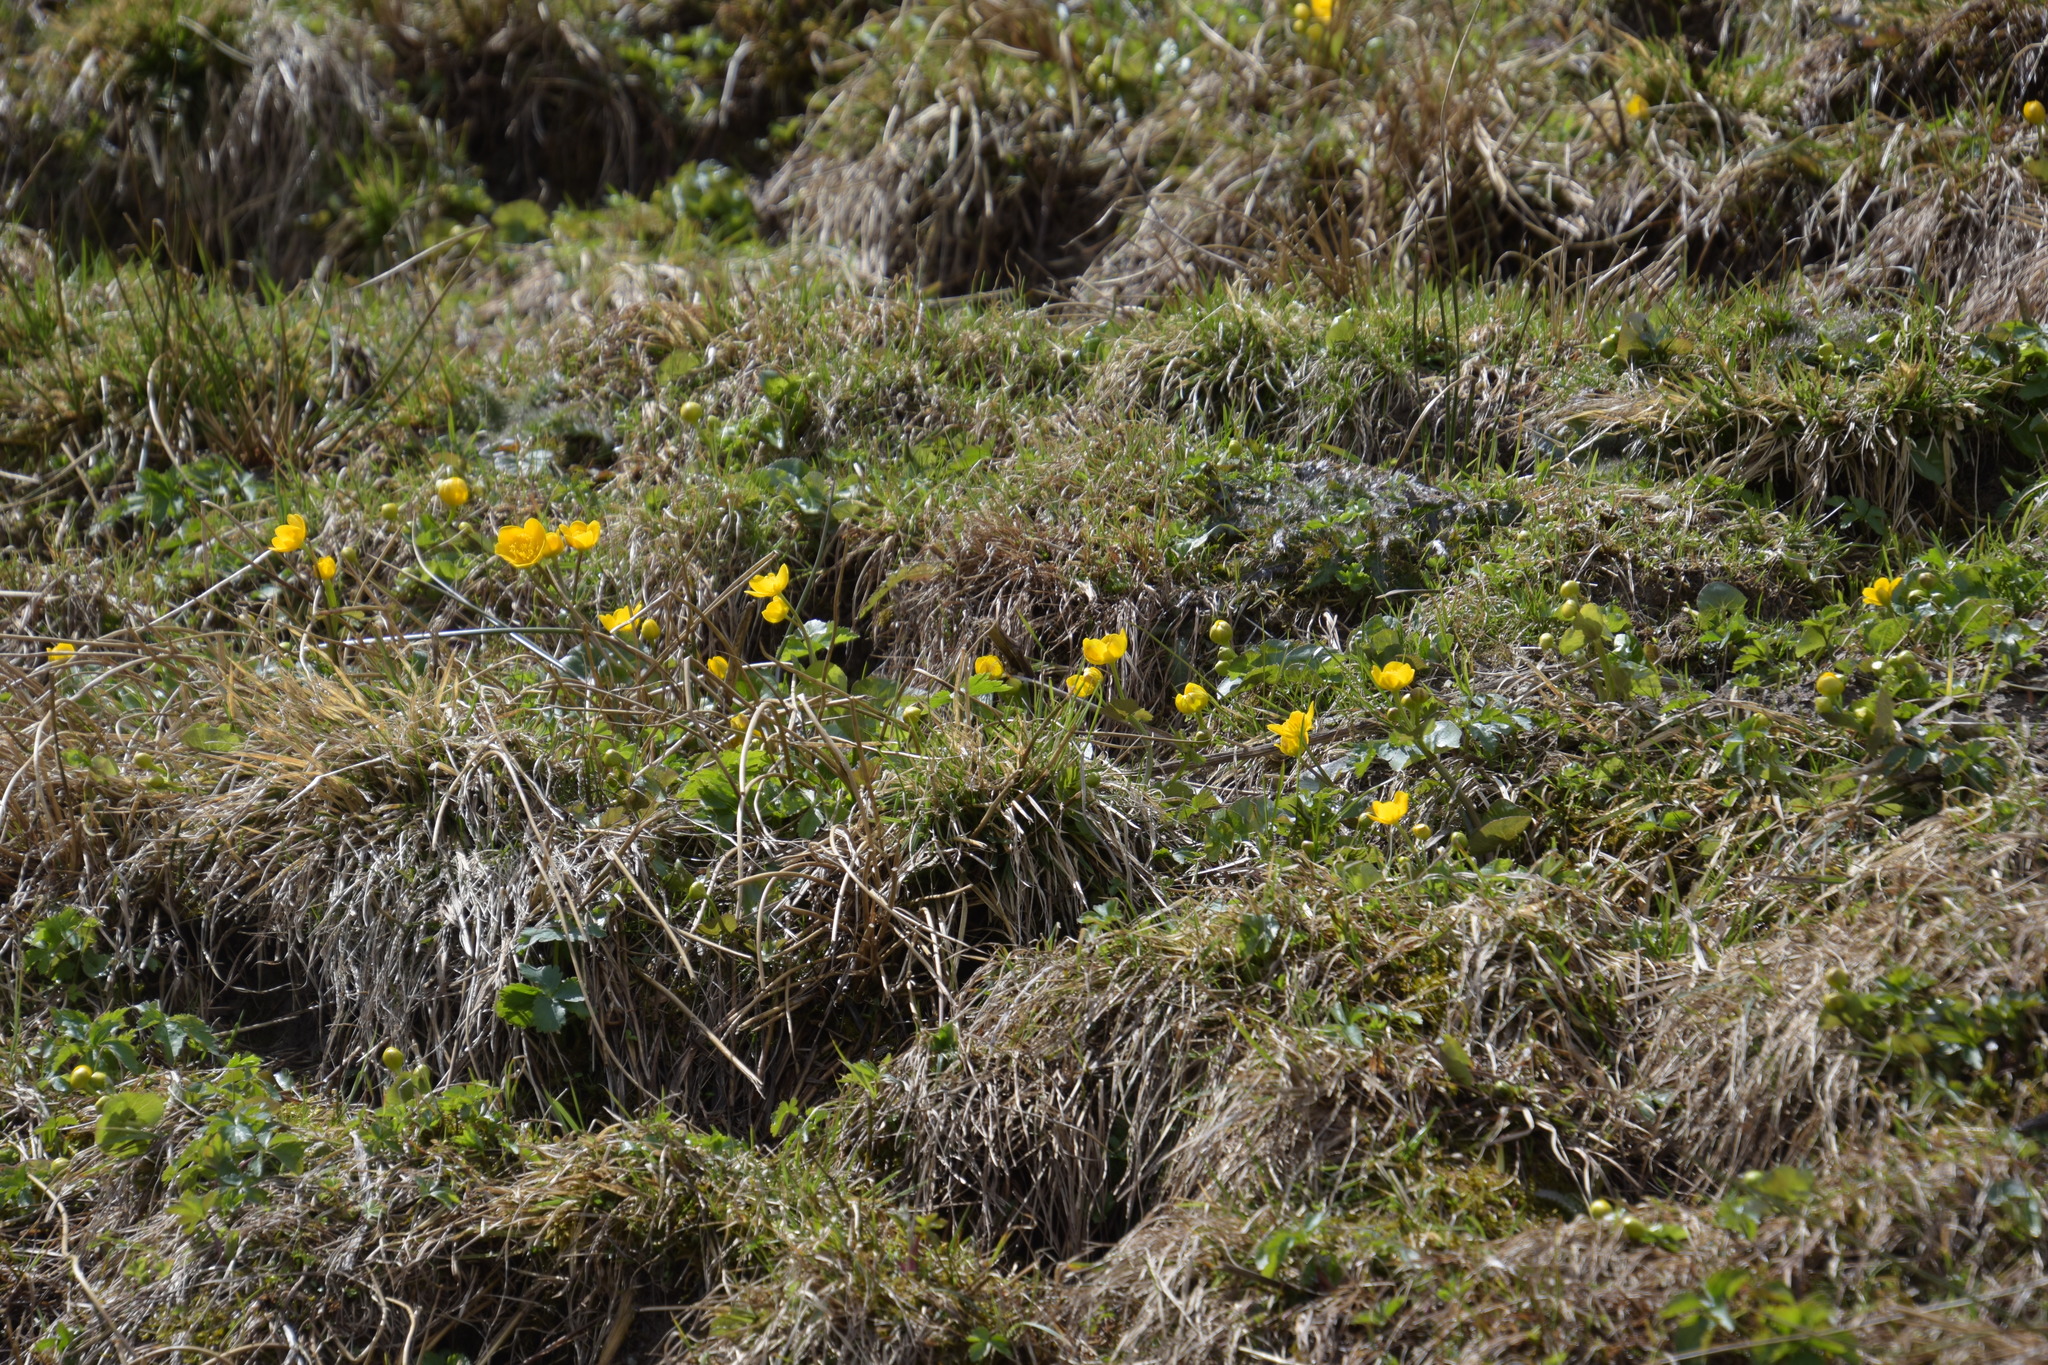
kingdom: Plantae
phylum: Tracheophyta
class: Magnoliopsida
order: Ranunculales
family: Ranunculaceae
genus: Caltha
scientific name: Caltha palustris
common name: Marsh marigold
